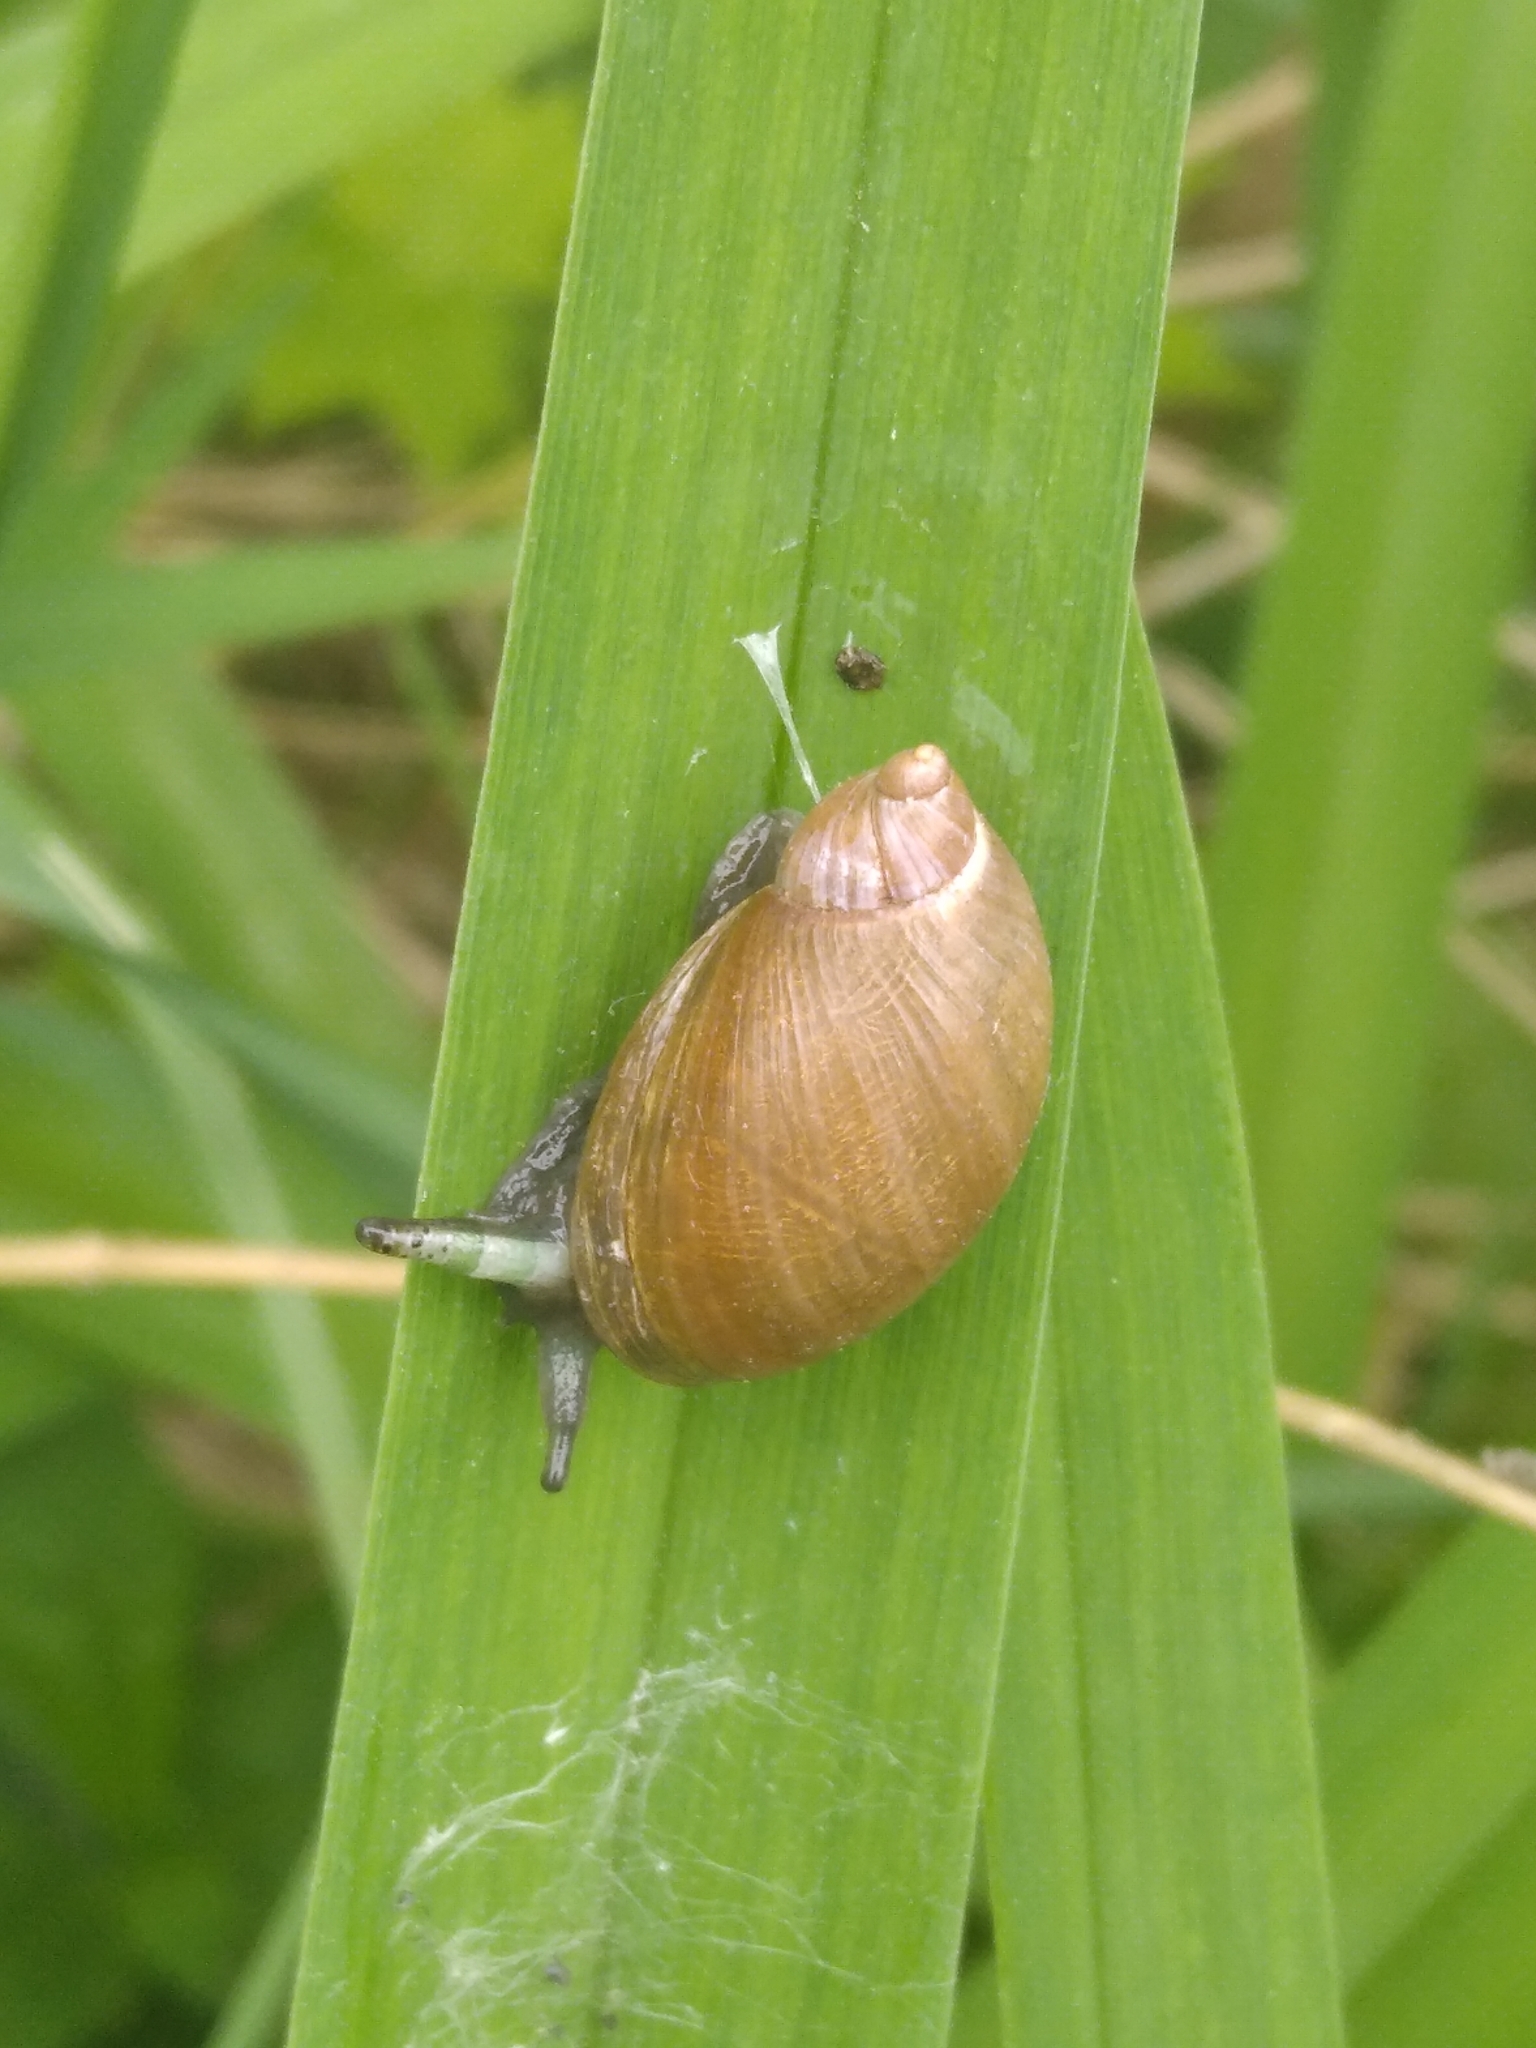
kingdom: Animalia
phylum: Mollusca
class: Gastropoda
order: Stylommatophora
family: Succineidae
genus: Succinea
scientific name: Succinea putris
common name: European ambersnail
